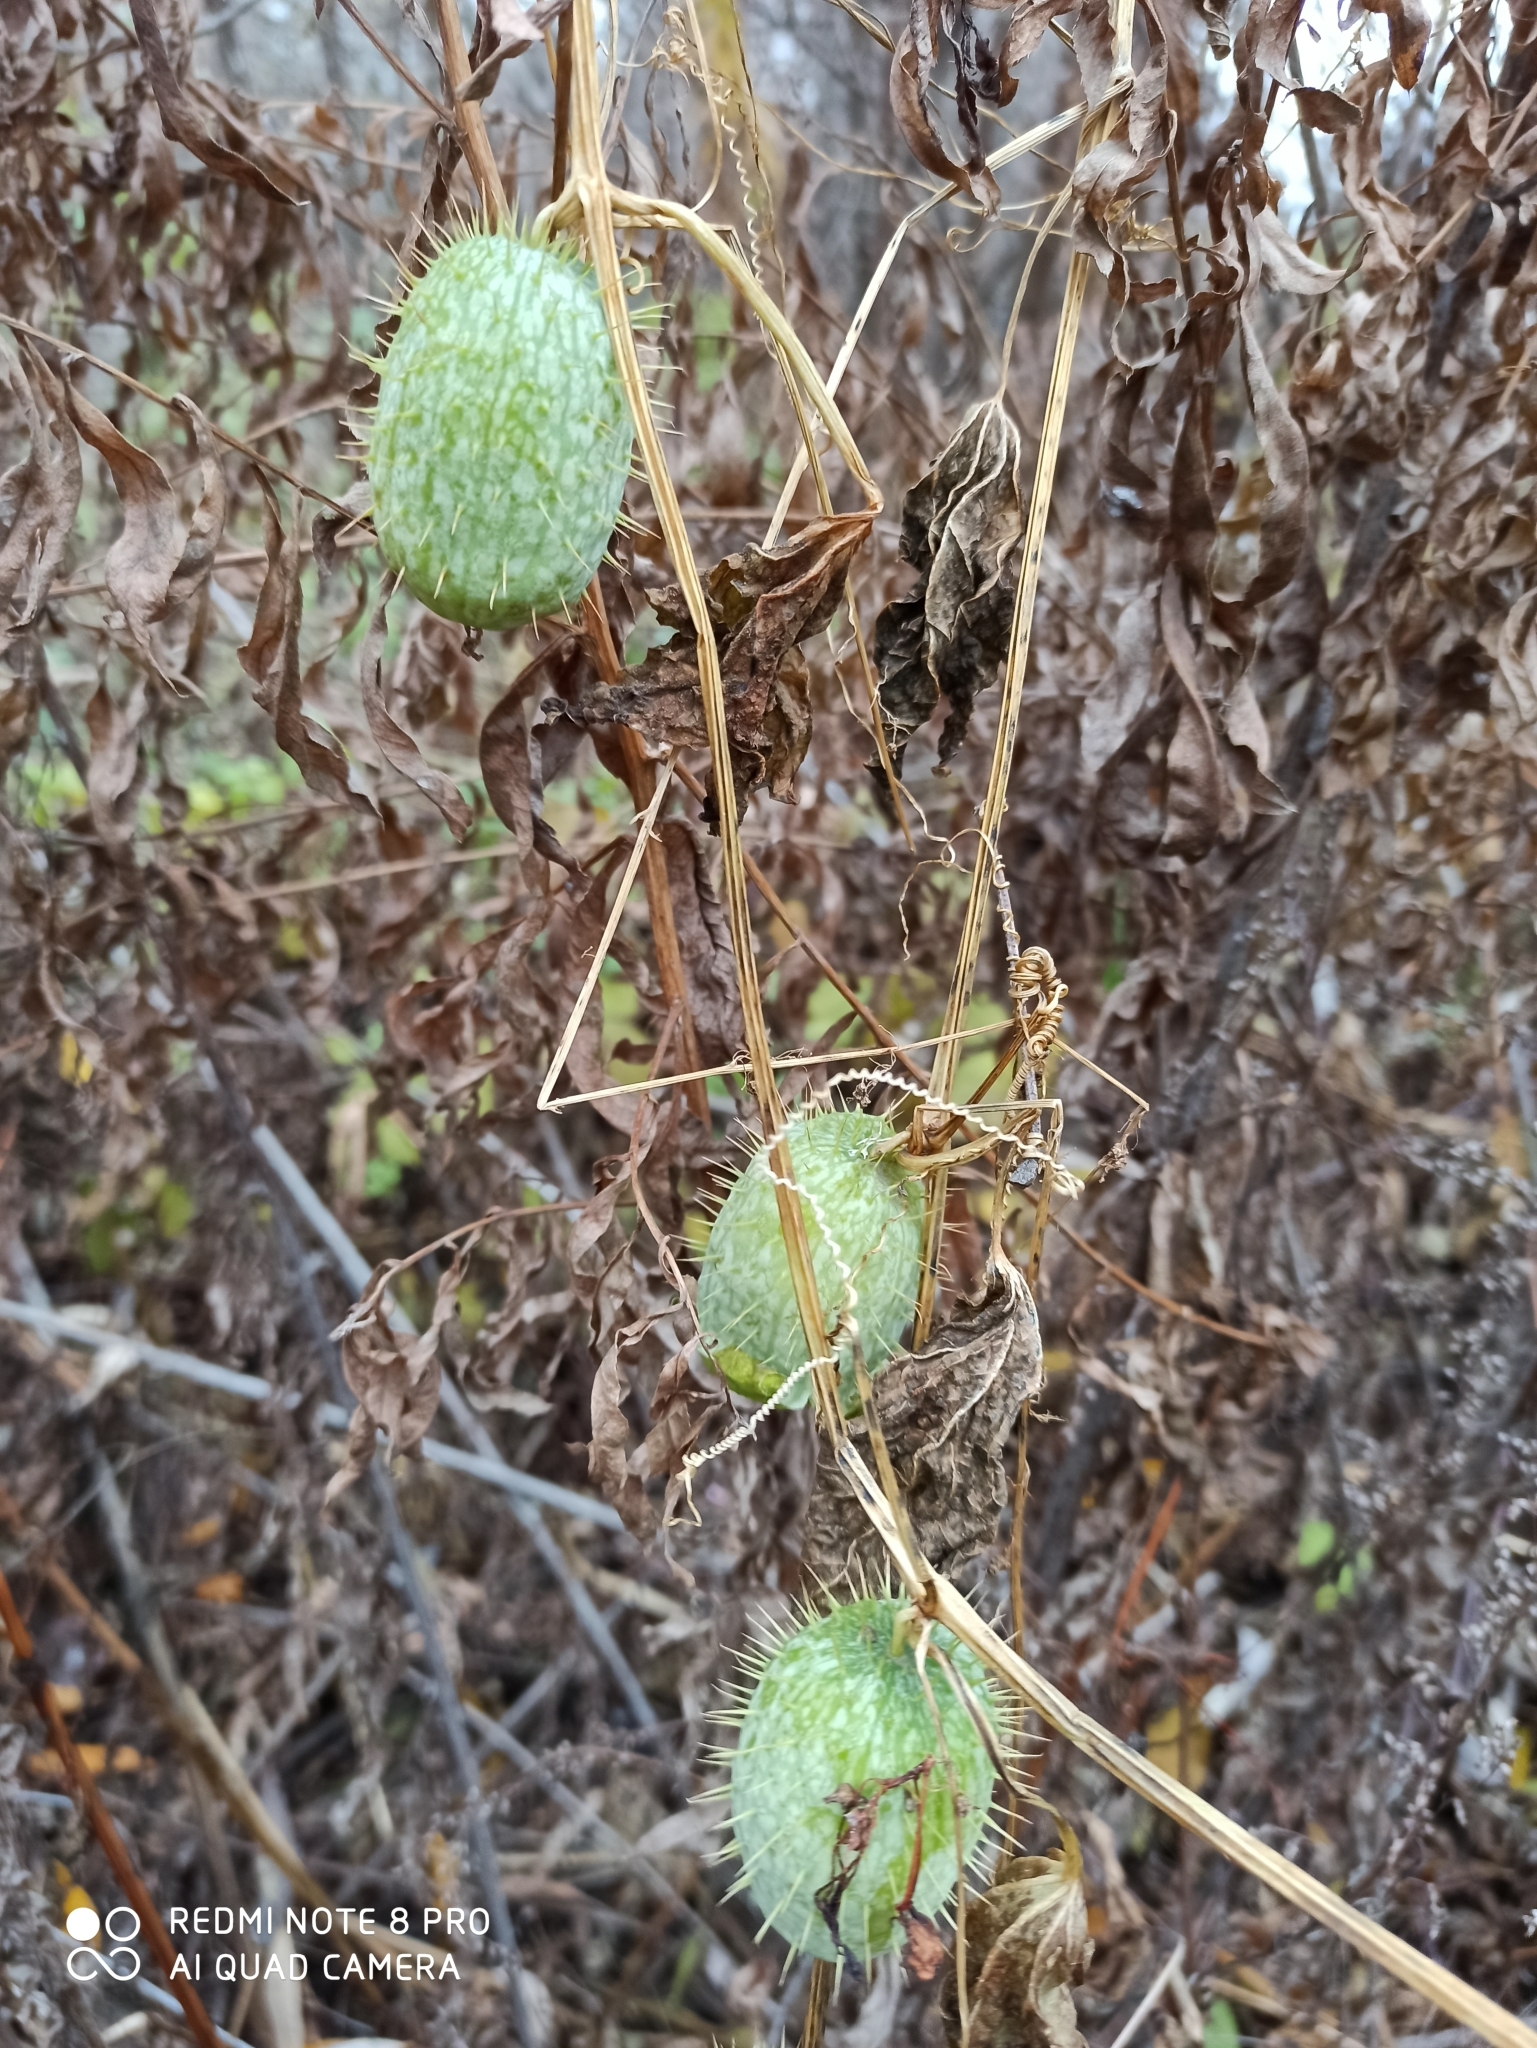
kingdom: Plantae
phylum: Tracheophyta
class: Magnoliopsida
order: Cucurbitales
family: Cucurbitaceae
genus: Echinocystis
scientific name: Echinocystis lobata
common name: Wild cucumber
